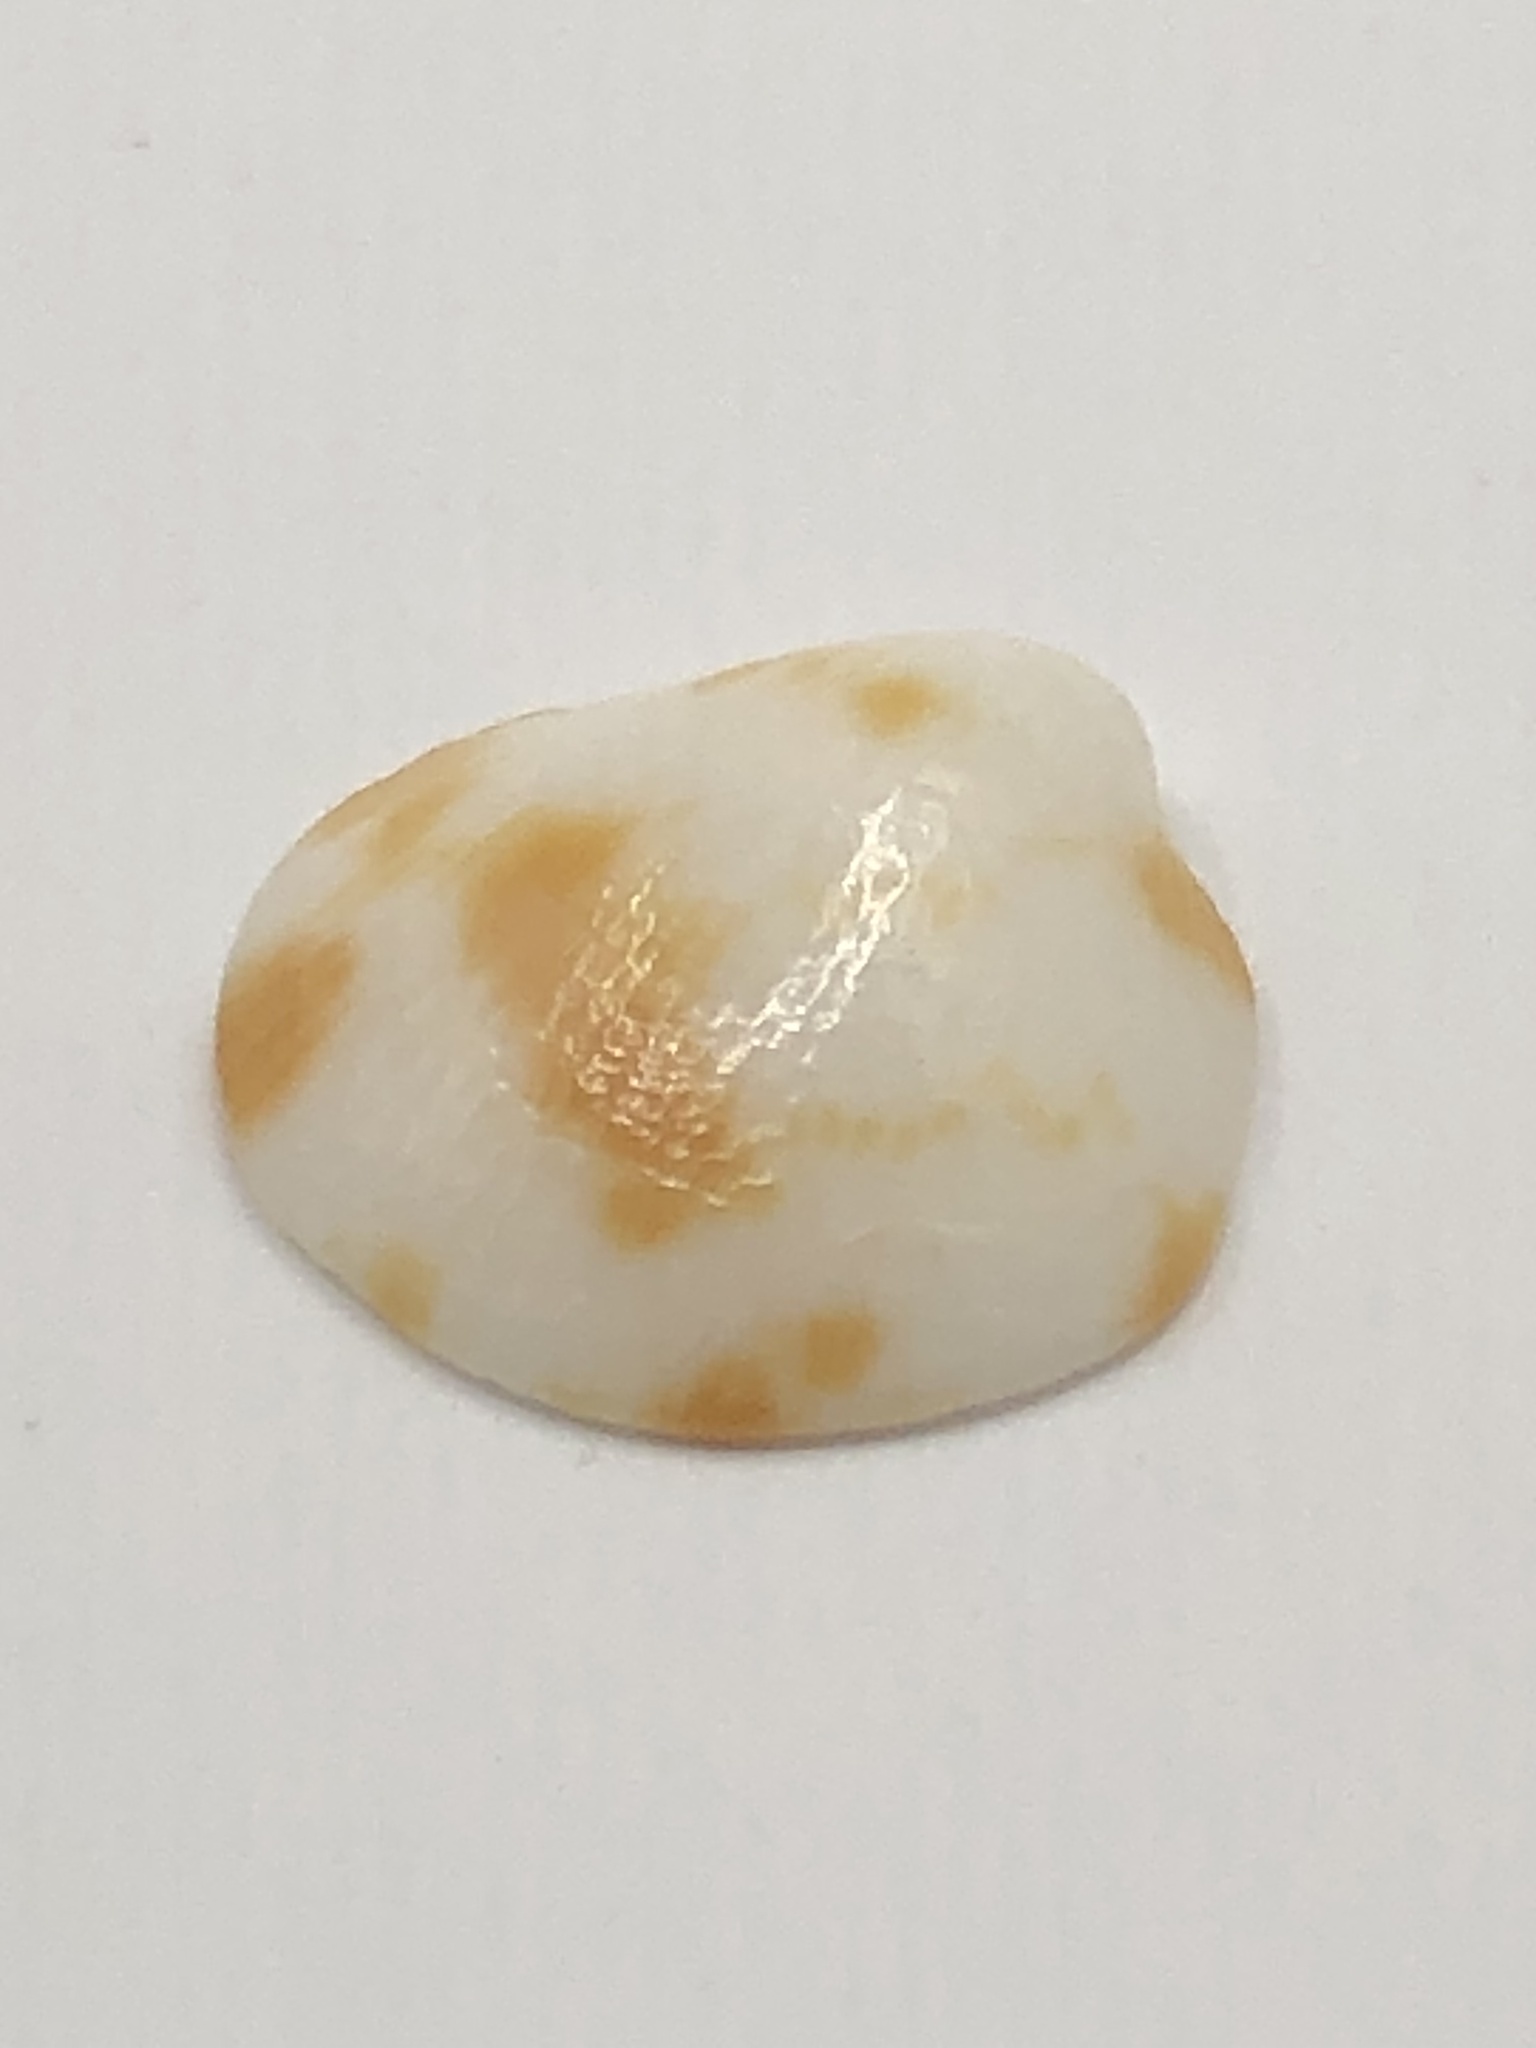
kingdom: Animalia
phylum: Mollusca
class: Bivalvia
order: Arcida
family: Glycymerididae
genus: Tucetona
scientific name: Tucetona pectinata
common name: Comb bittersweet
